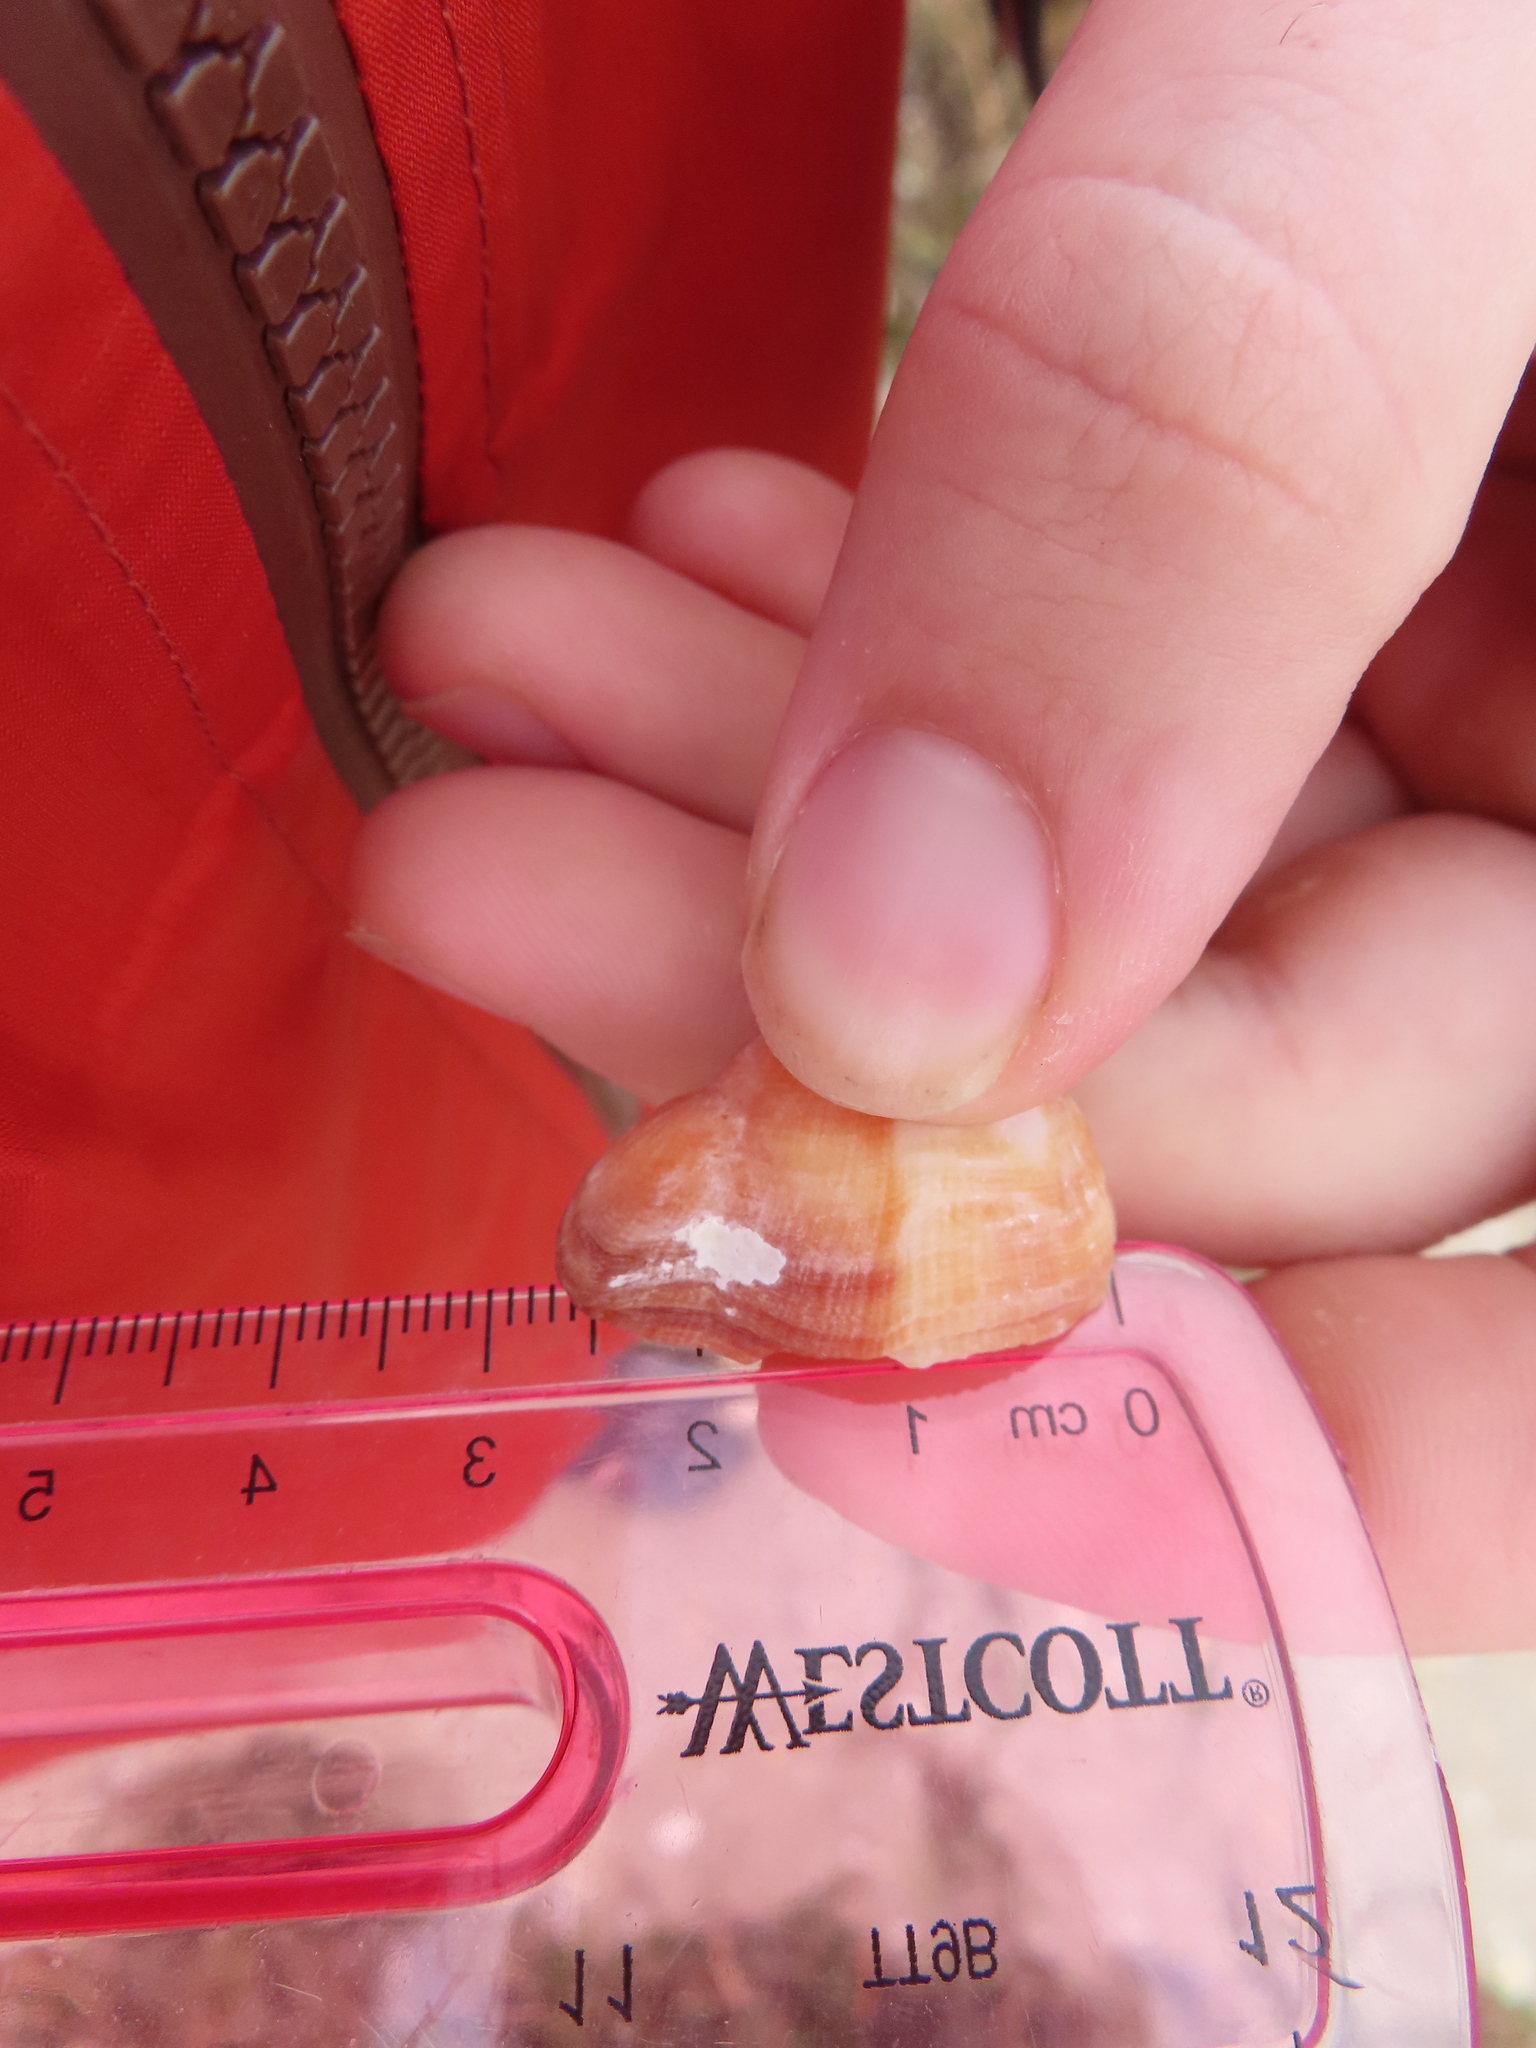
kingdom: Animalia
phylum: Mollusca
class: Bivalvia
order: Arcida
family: Arcidae
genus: Lamarcka
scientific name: Lamarcka imbricata
